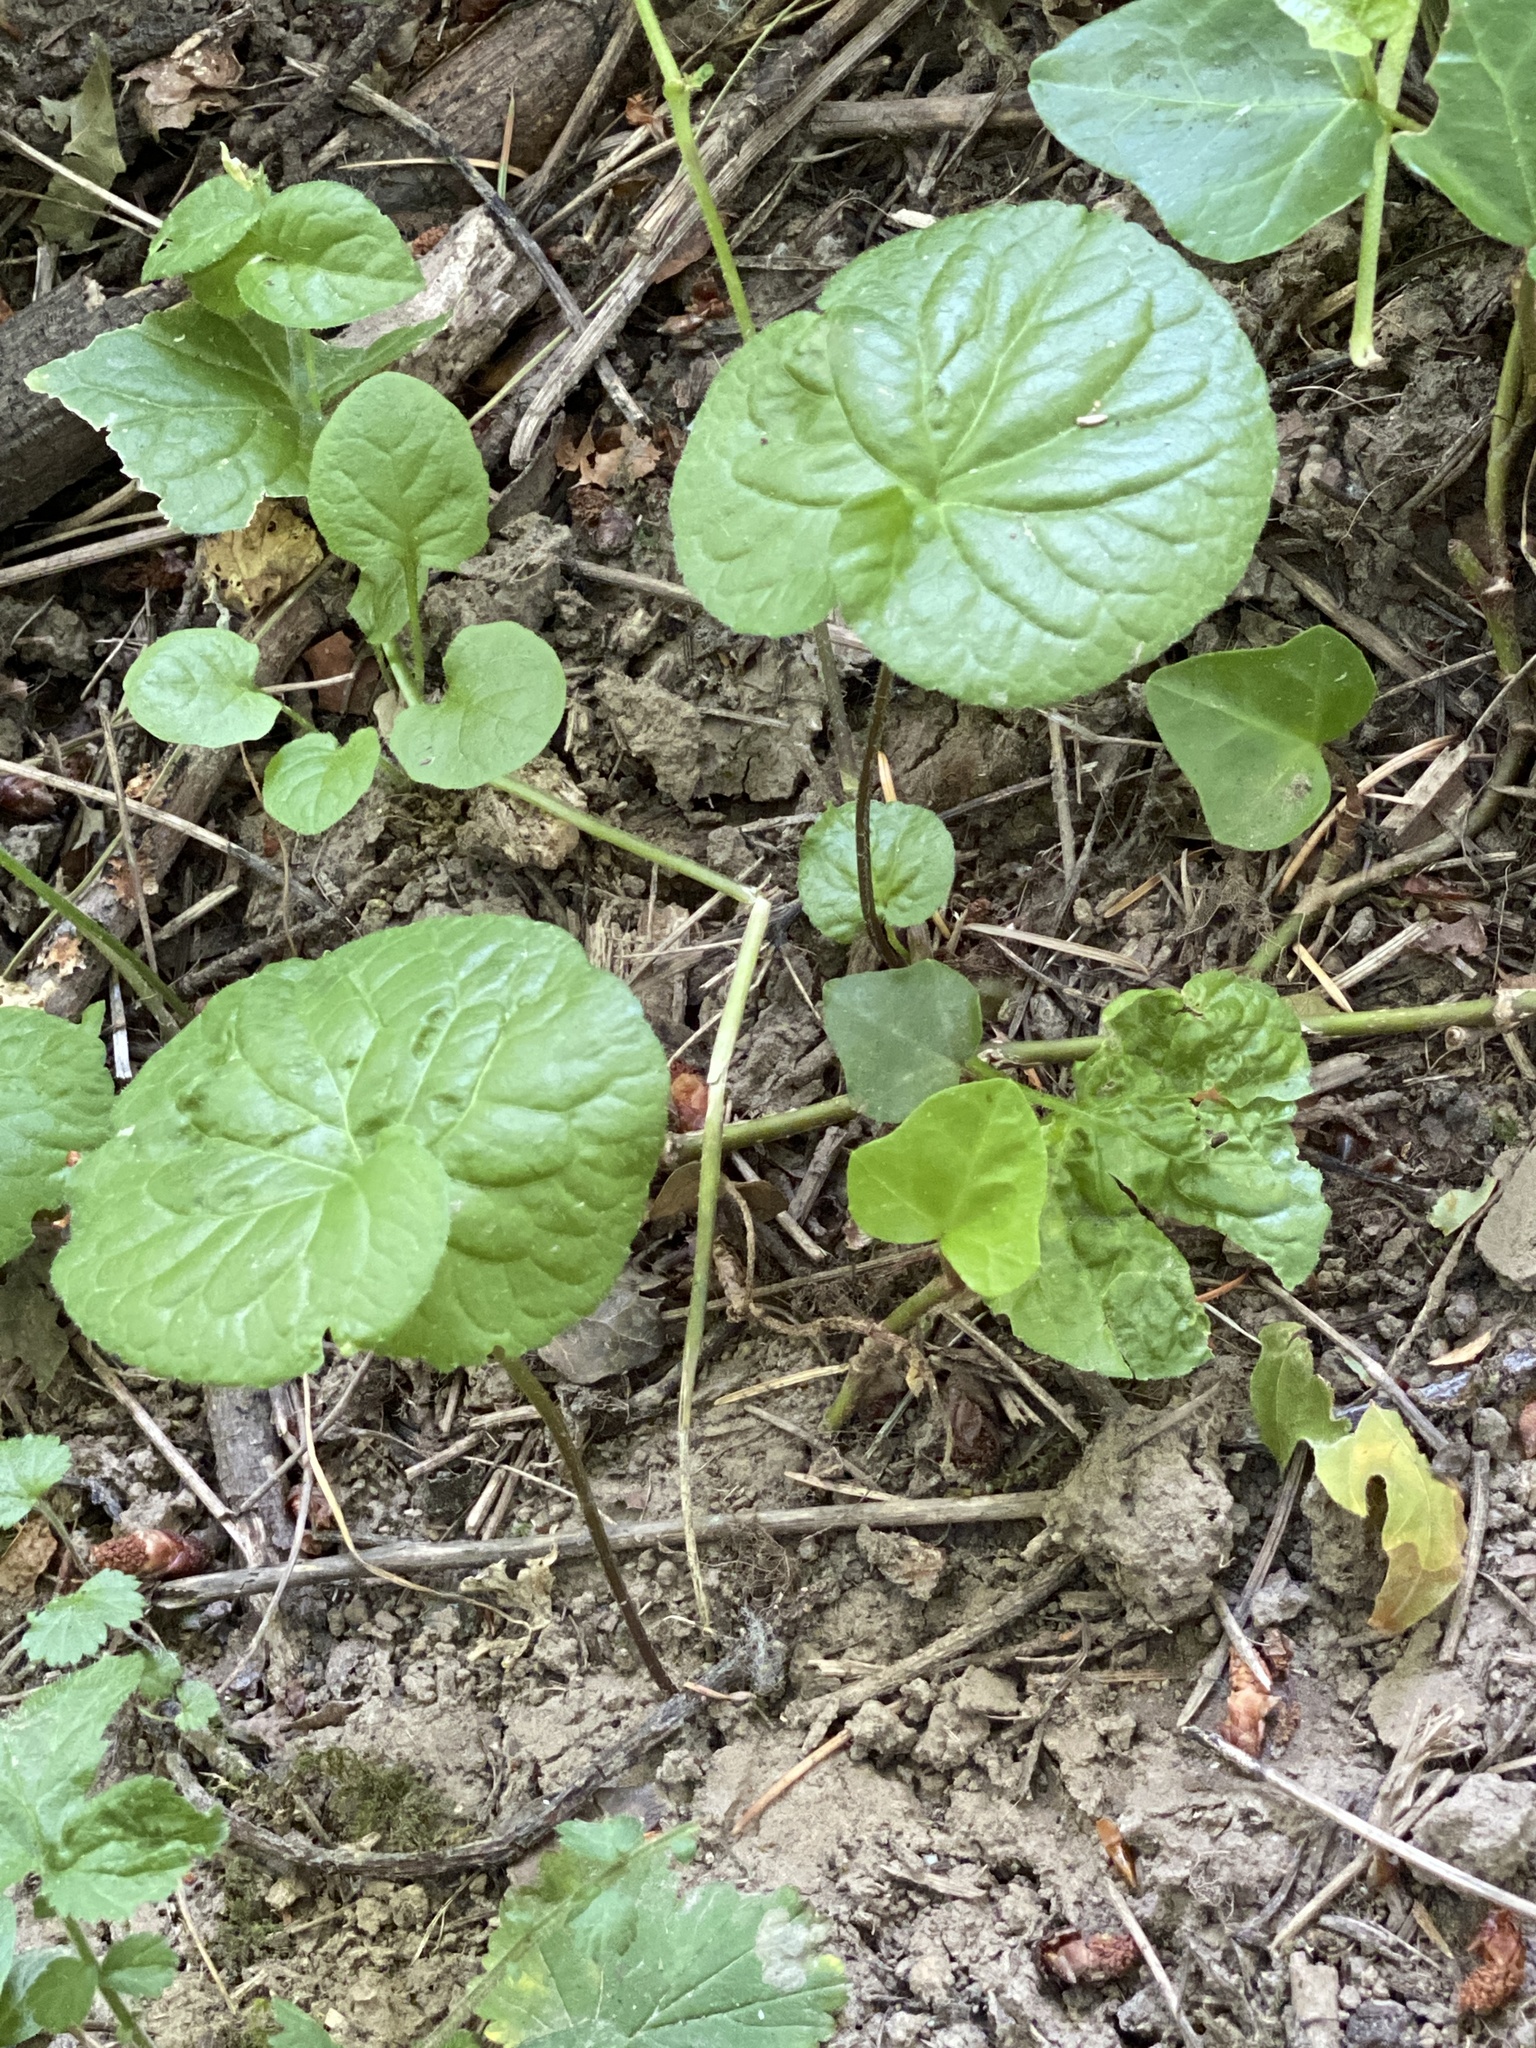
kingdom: Plantae
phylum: Tracheophyta
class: Magnoliopsida
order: Piperales
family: Aristolochiaceae
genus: Asarum
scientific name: Asarum caudatum
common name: Wild ginger
